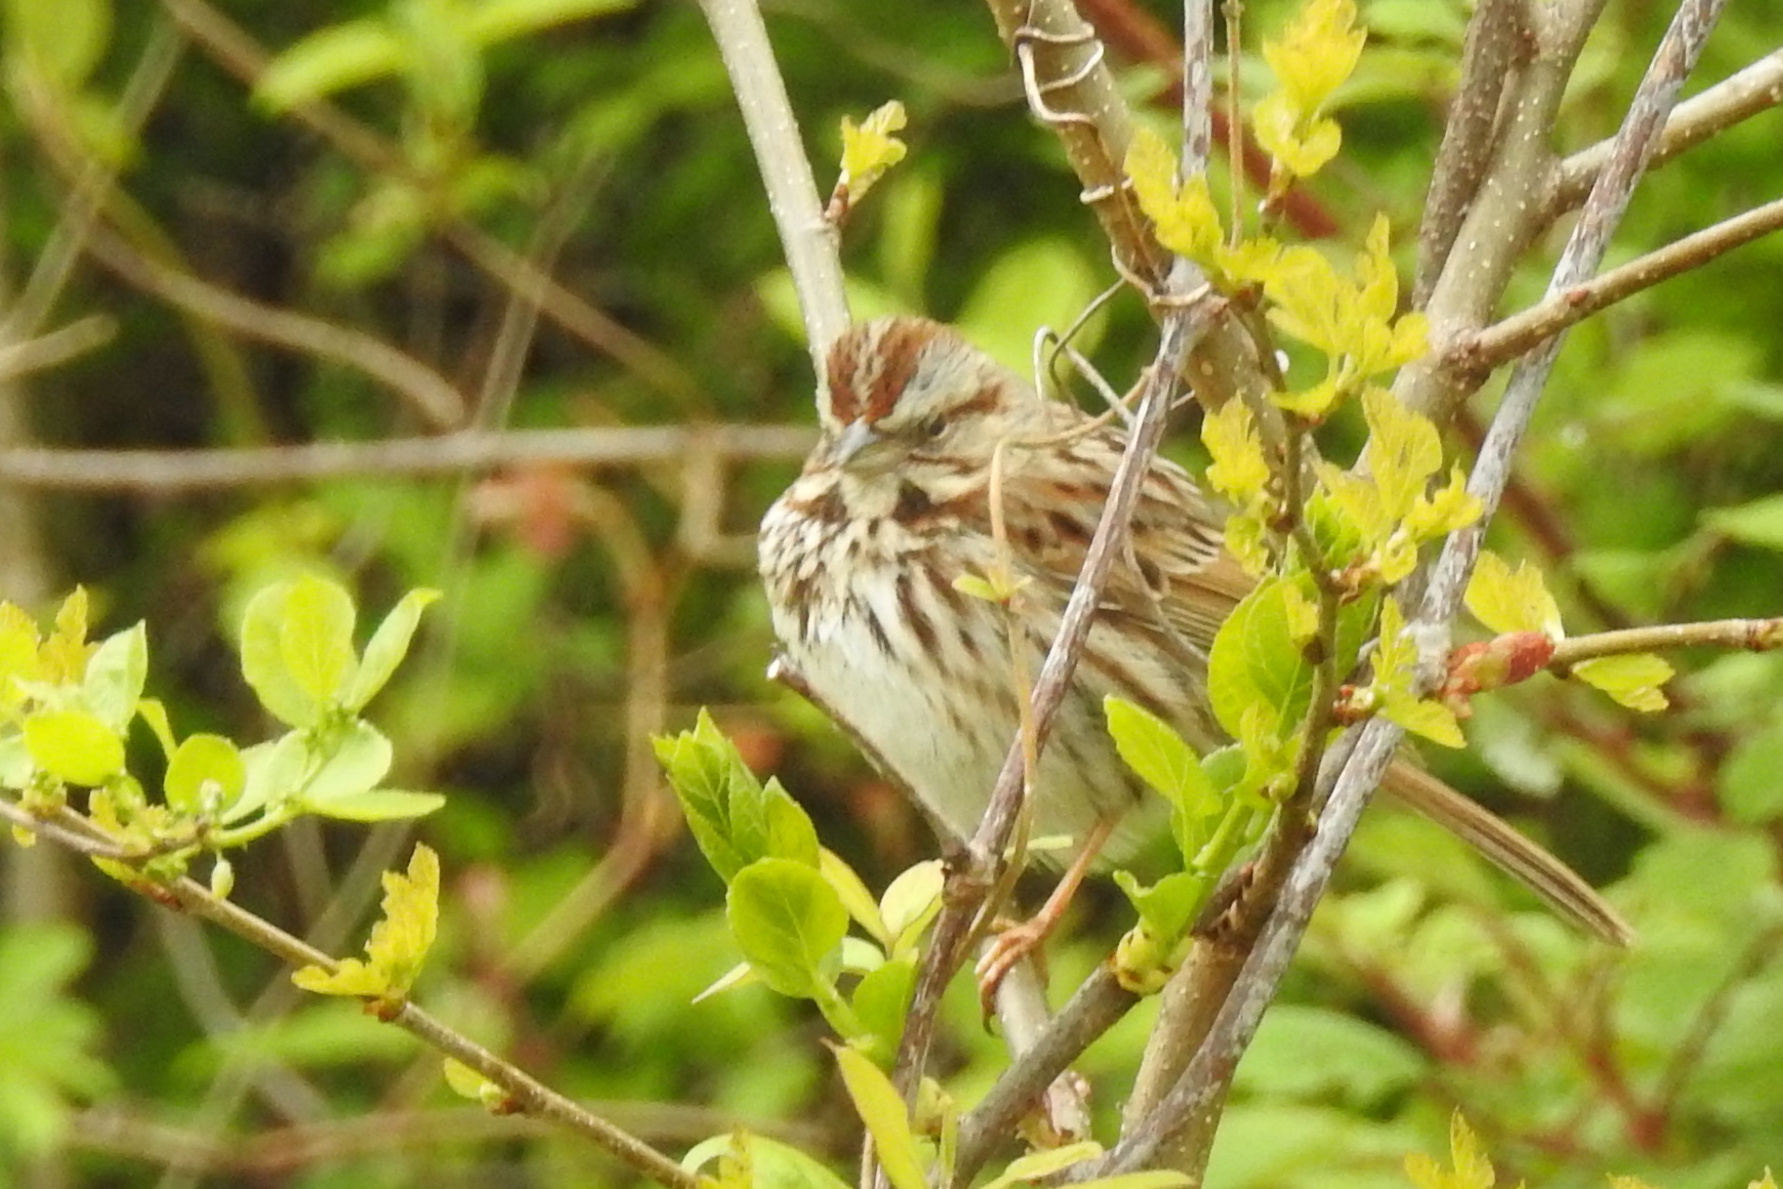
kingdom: Animalia
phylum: Chordata
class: Aves
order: Passeriformes
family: Passerellidae
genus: Melospiza
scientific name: Melospiza melodia
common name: Song sparrow
